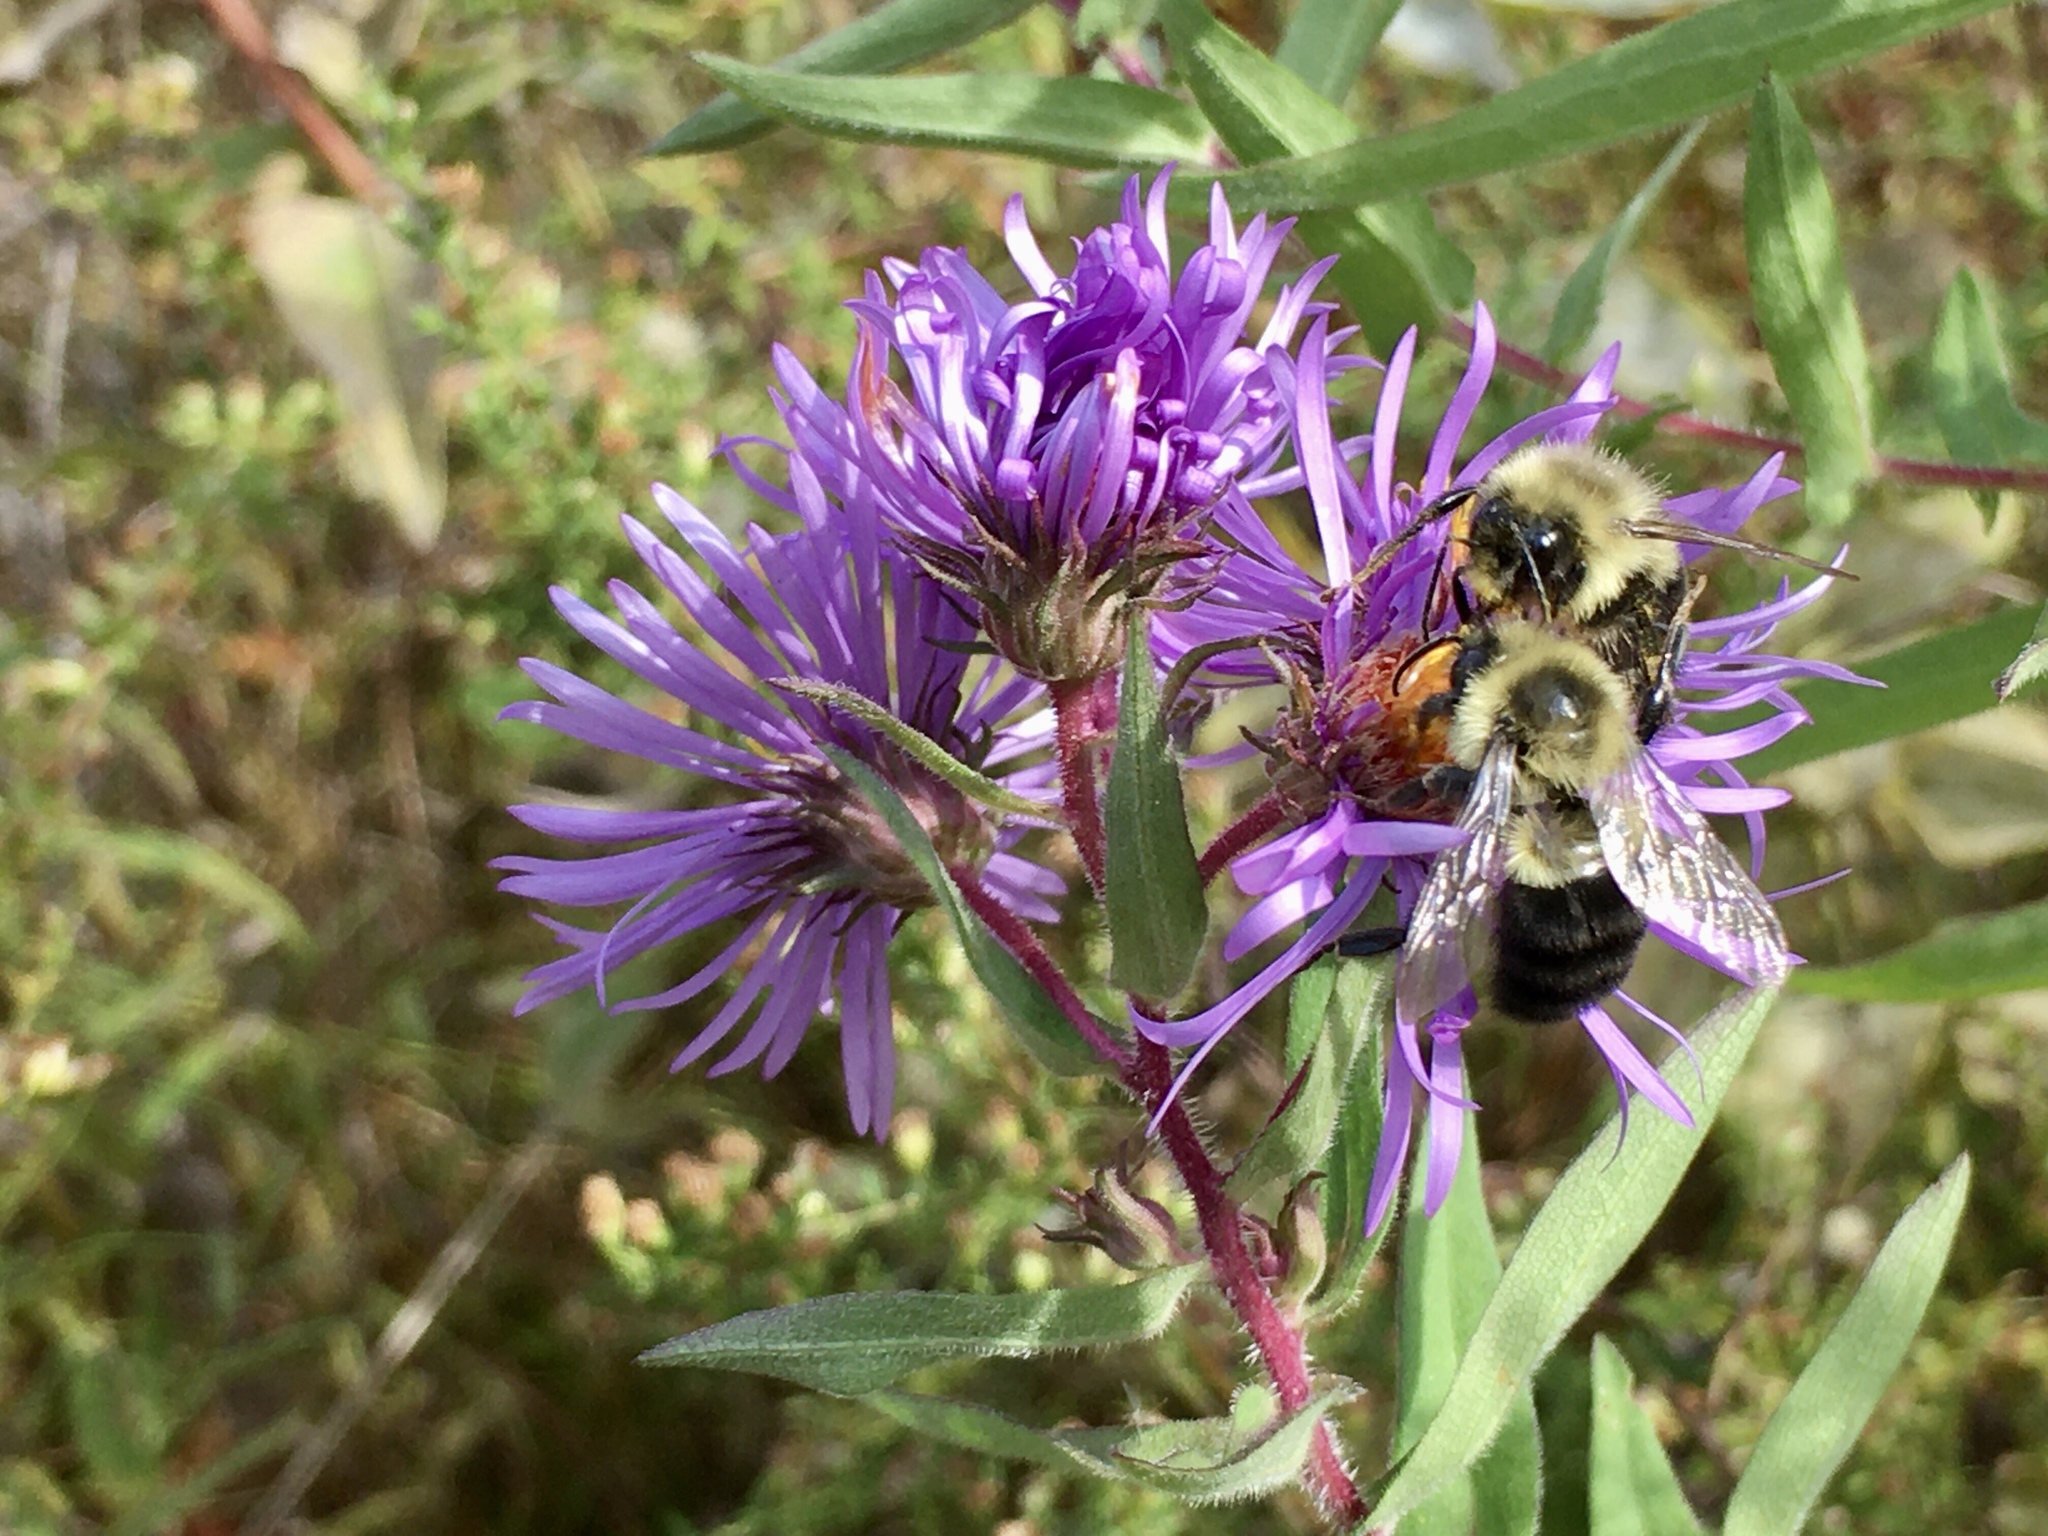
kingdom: Animalia
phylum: Arthropoda
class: Insecta
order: Hymenoptera
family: Apidae
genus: Bombus
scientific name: Bombus impatiens
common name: Common eastern bumble bee
